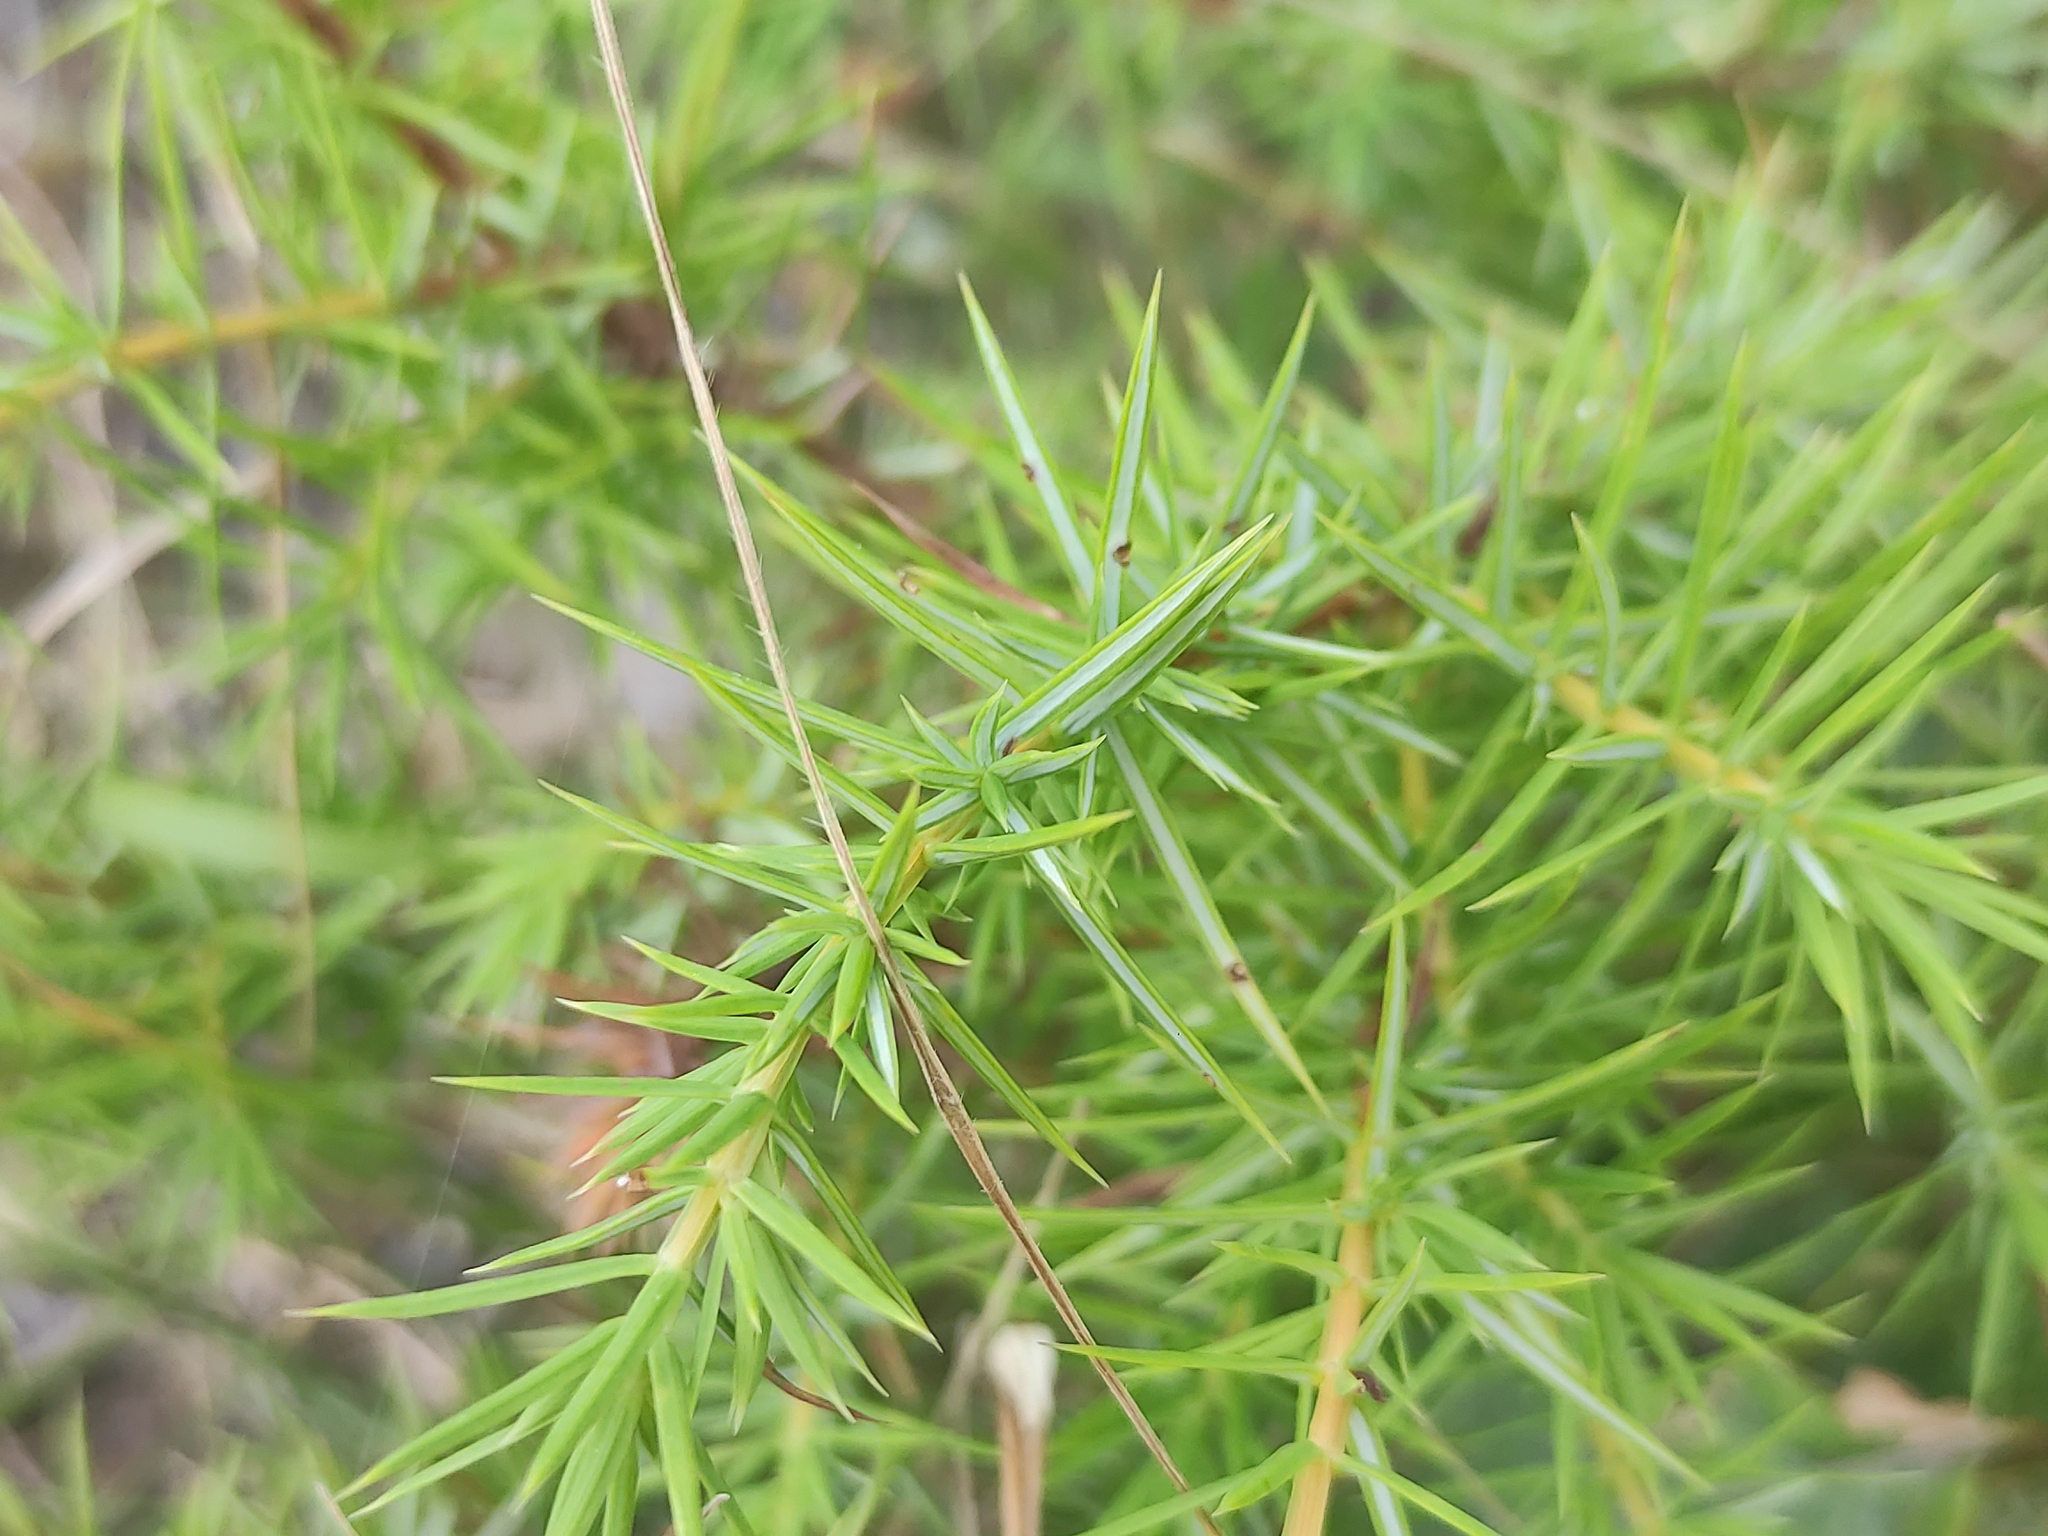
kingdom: Plantae
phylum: Tracheophyta
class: Pinopsida
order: Pinales
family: Cupressaceae
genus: Juniperus
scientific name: Juniperus communis
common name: Common juniper
